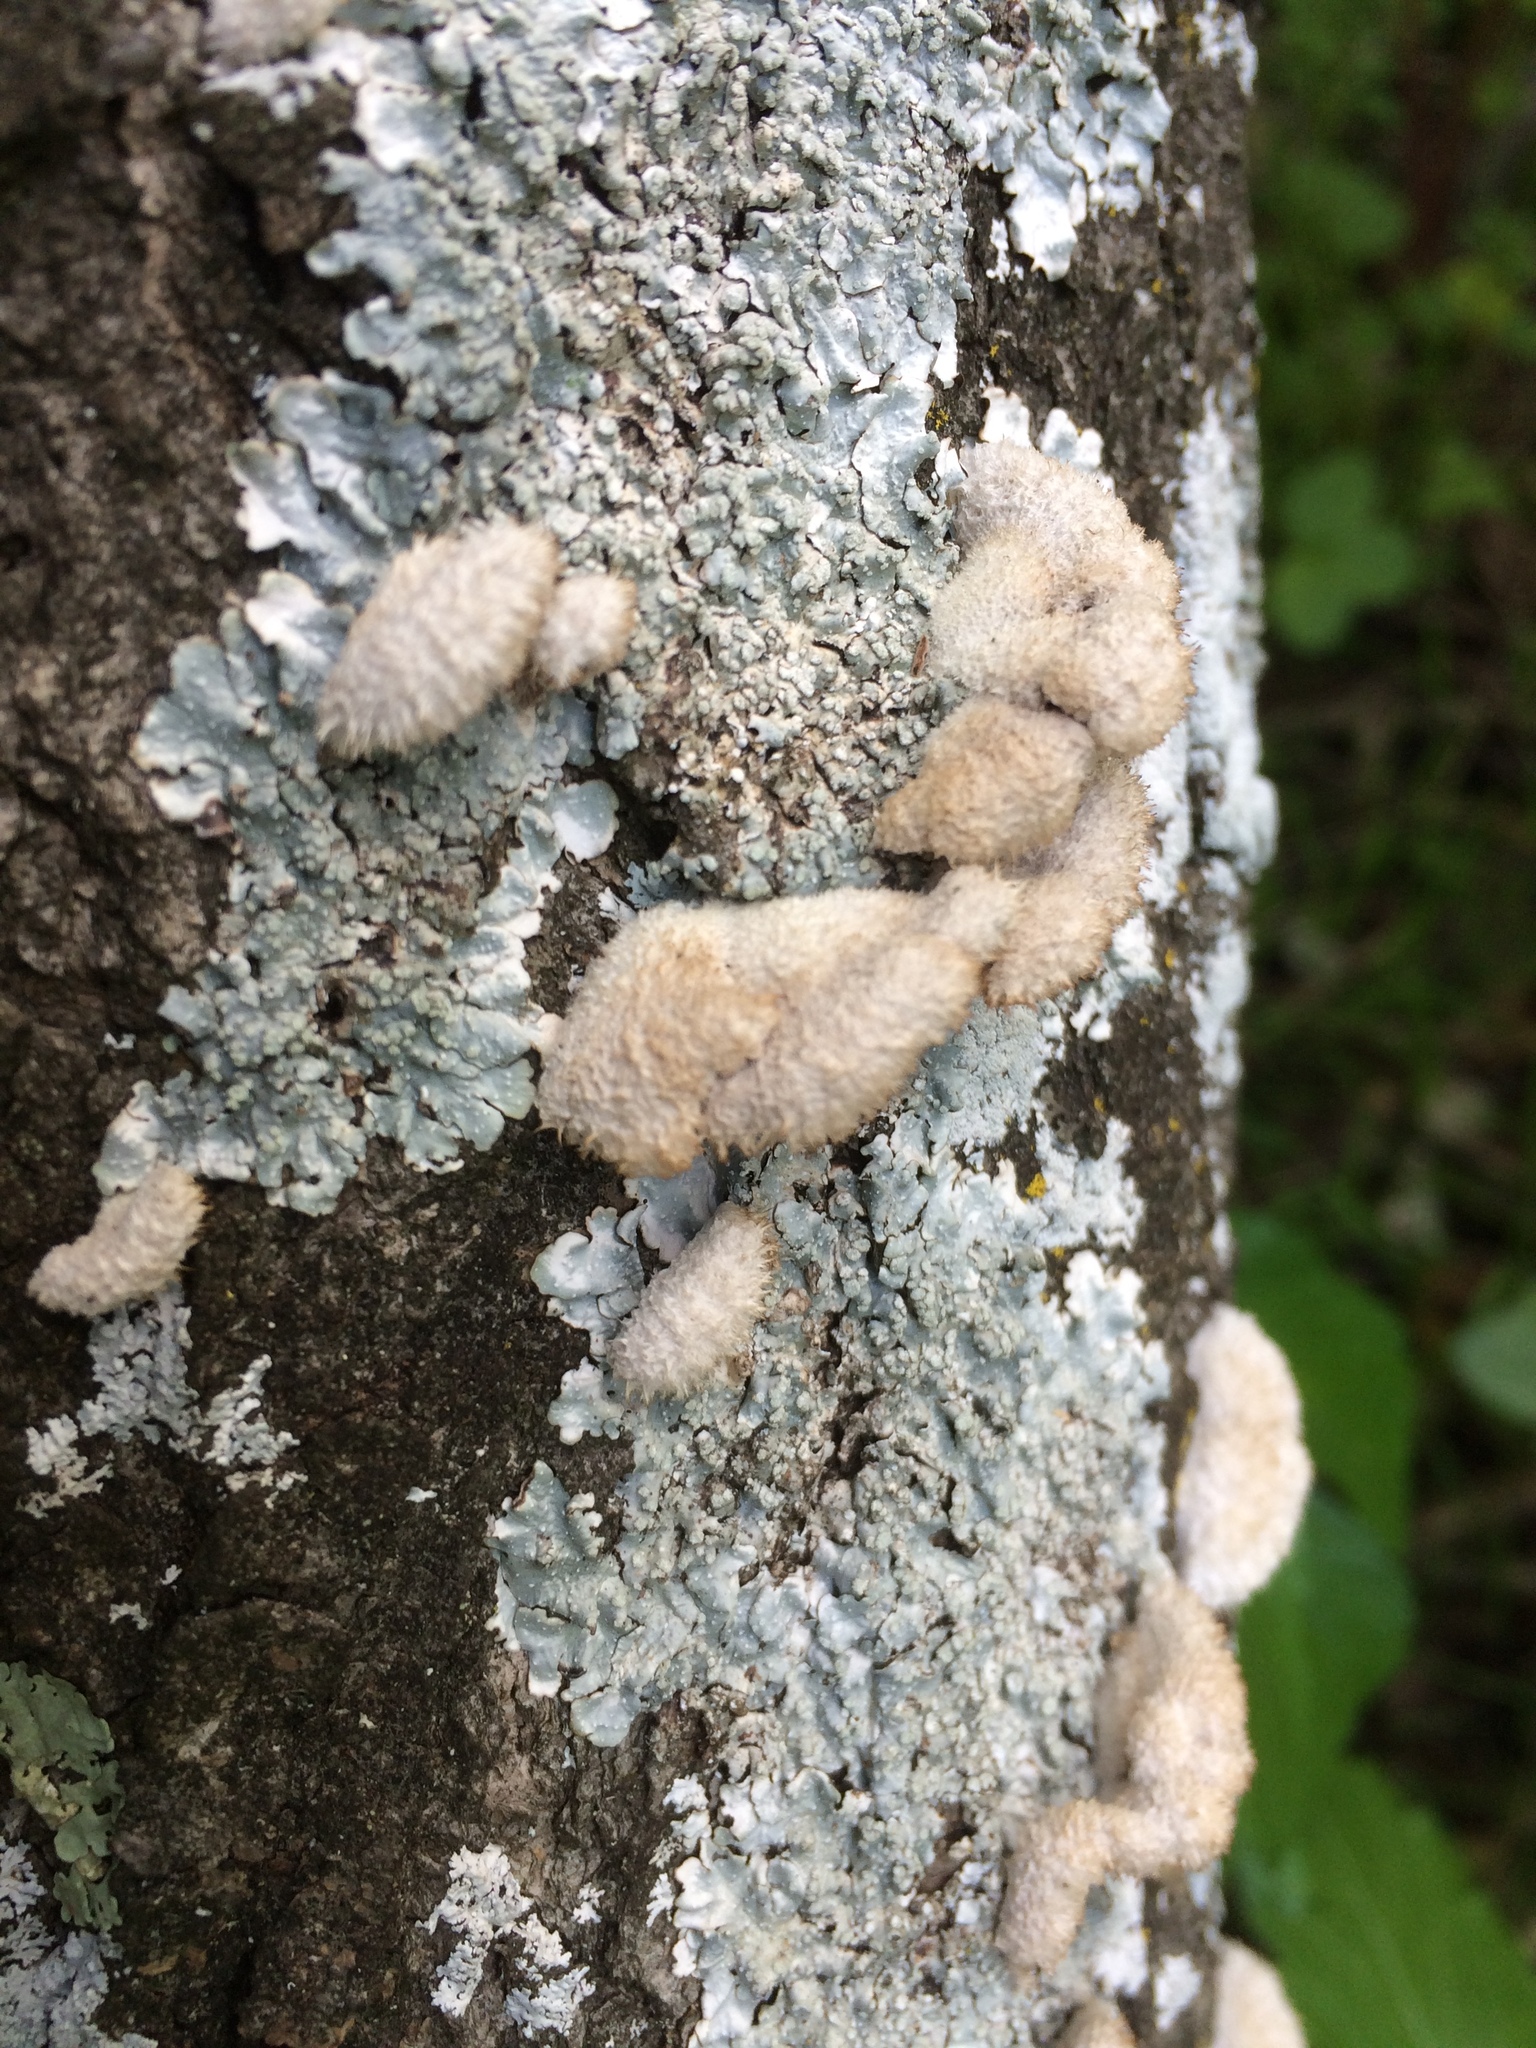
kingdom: Fungi
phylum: Basidiomycota
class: Agaricomycetes
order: Agaricales
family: Schizophyllaceae
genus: Schizophyllum
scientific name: Schizophyllum commune
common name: Common porecrust
